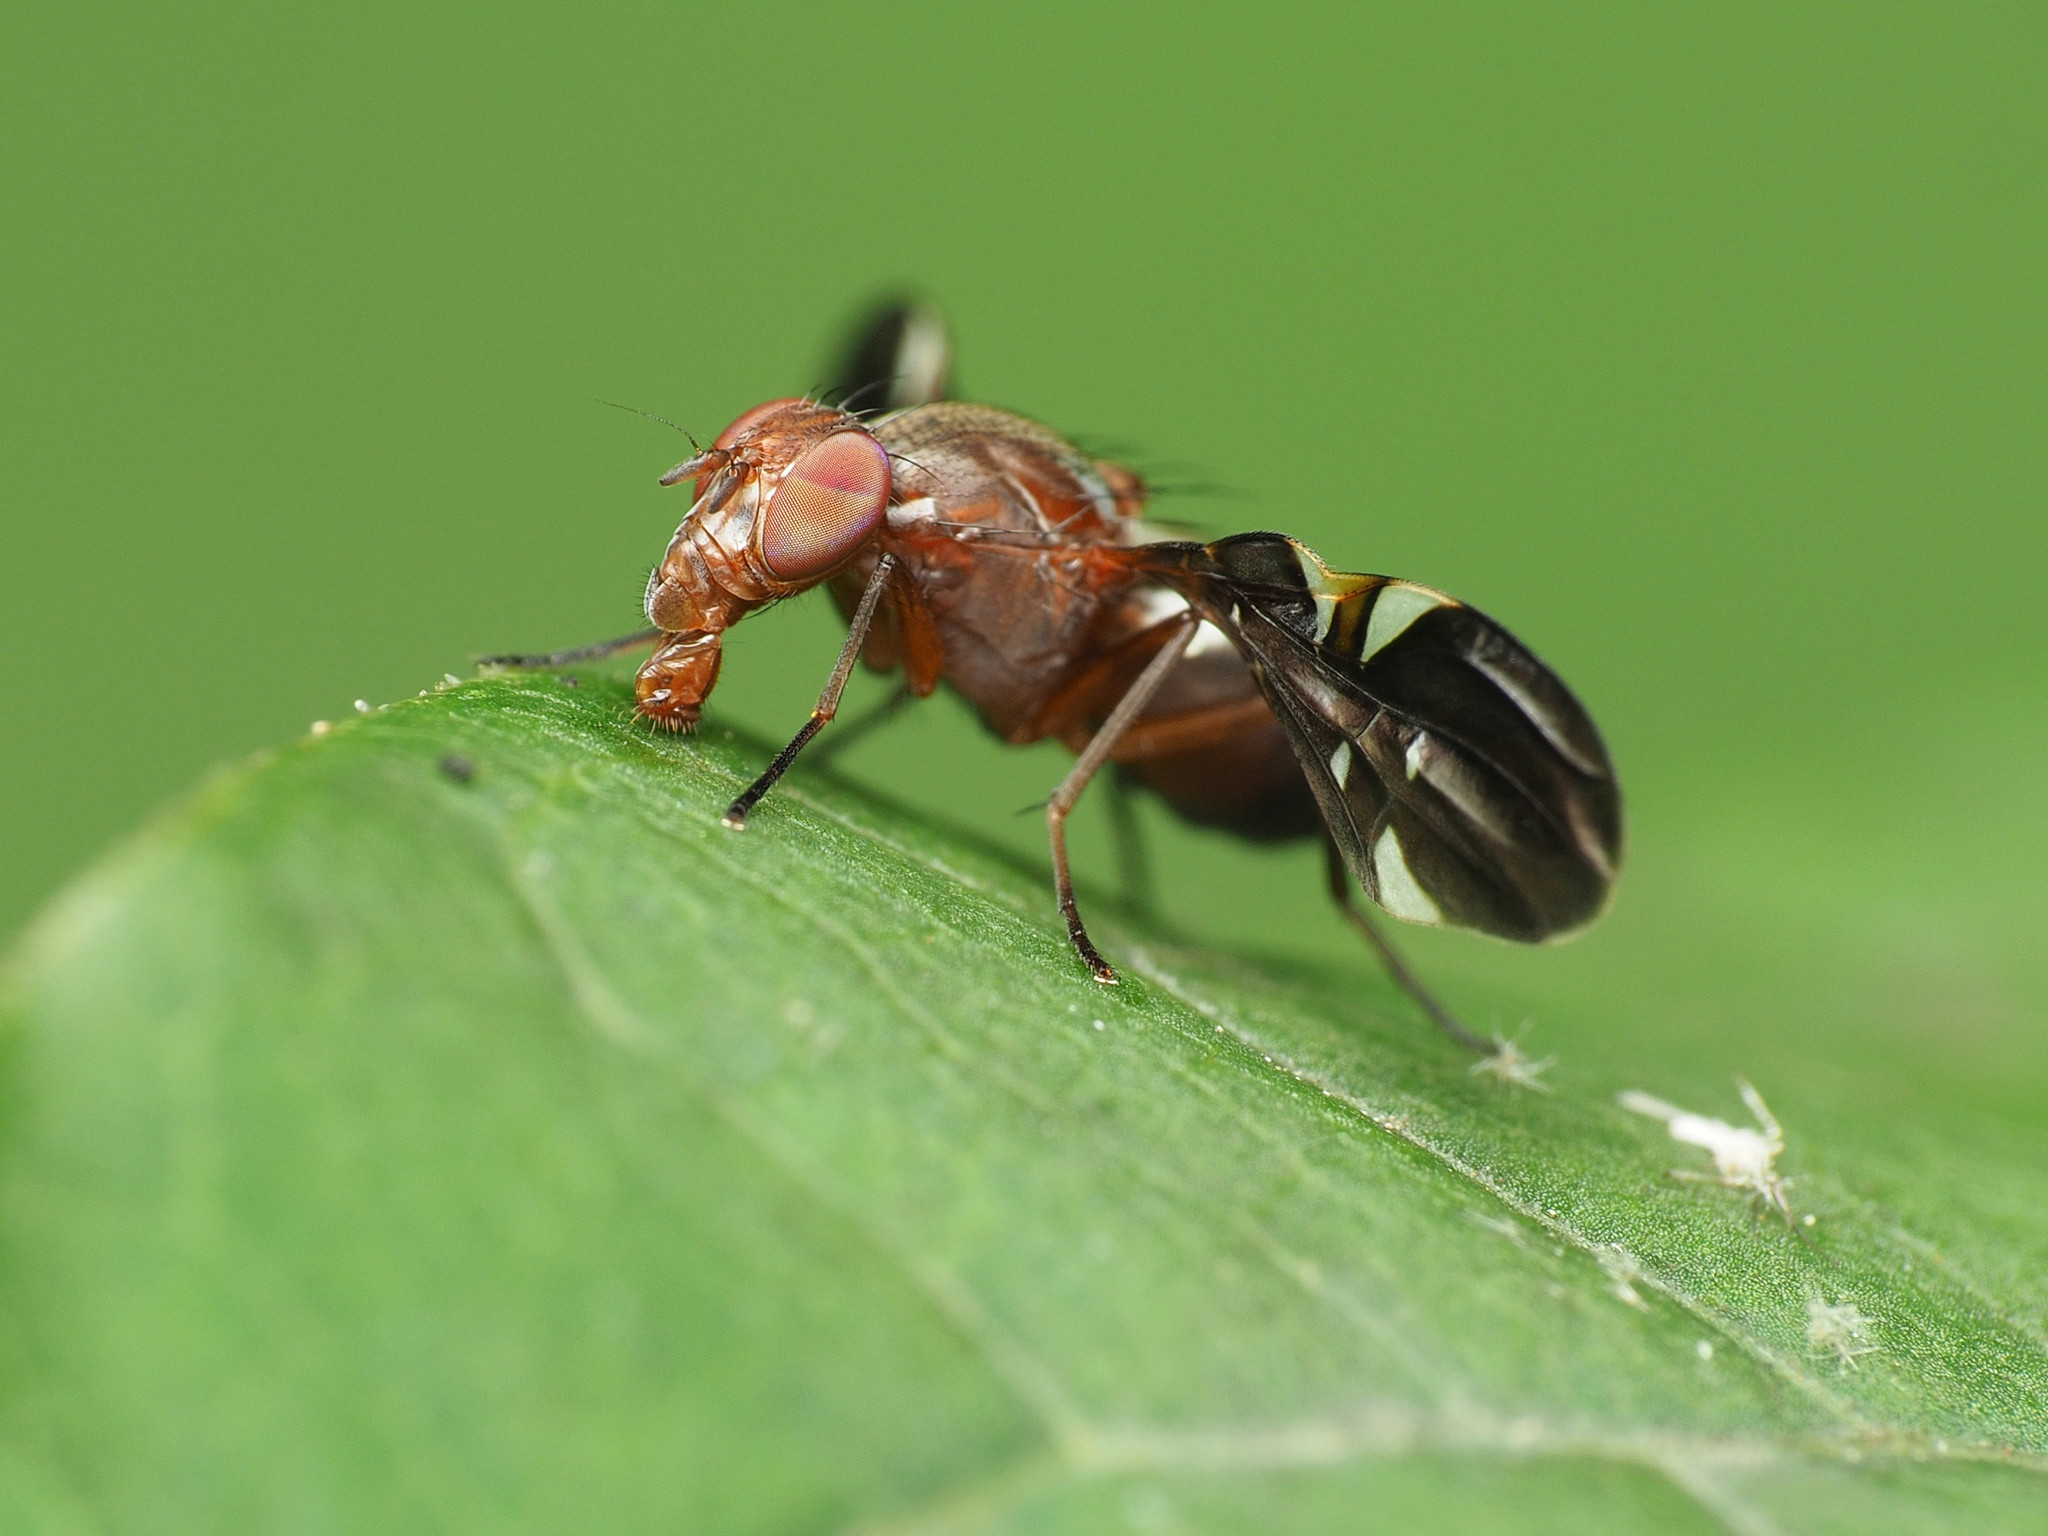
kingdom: Animalia
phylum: Arthropoda
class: Insecta
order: Diptera
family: Ulidiidae
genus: Delphinia
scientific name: Delphinia picta
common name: Common picture-winged fly
